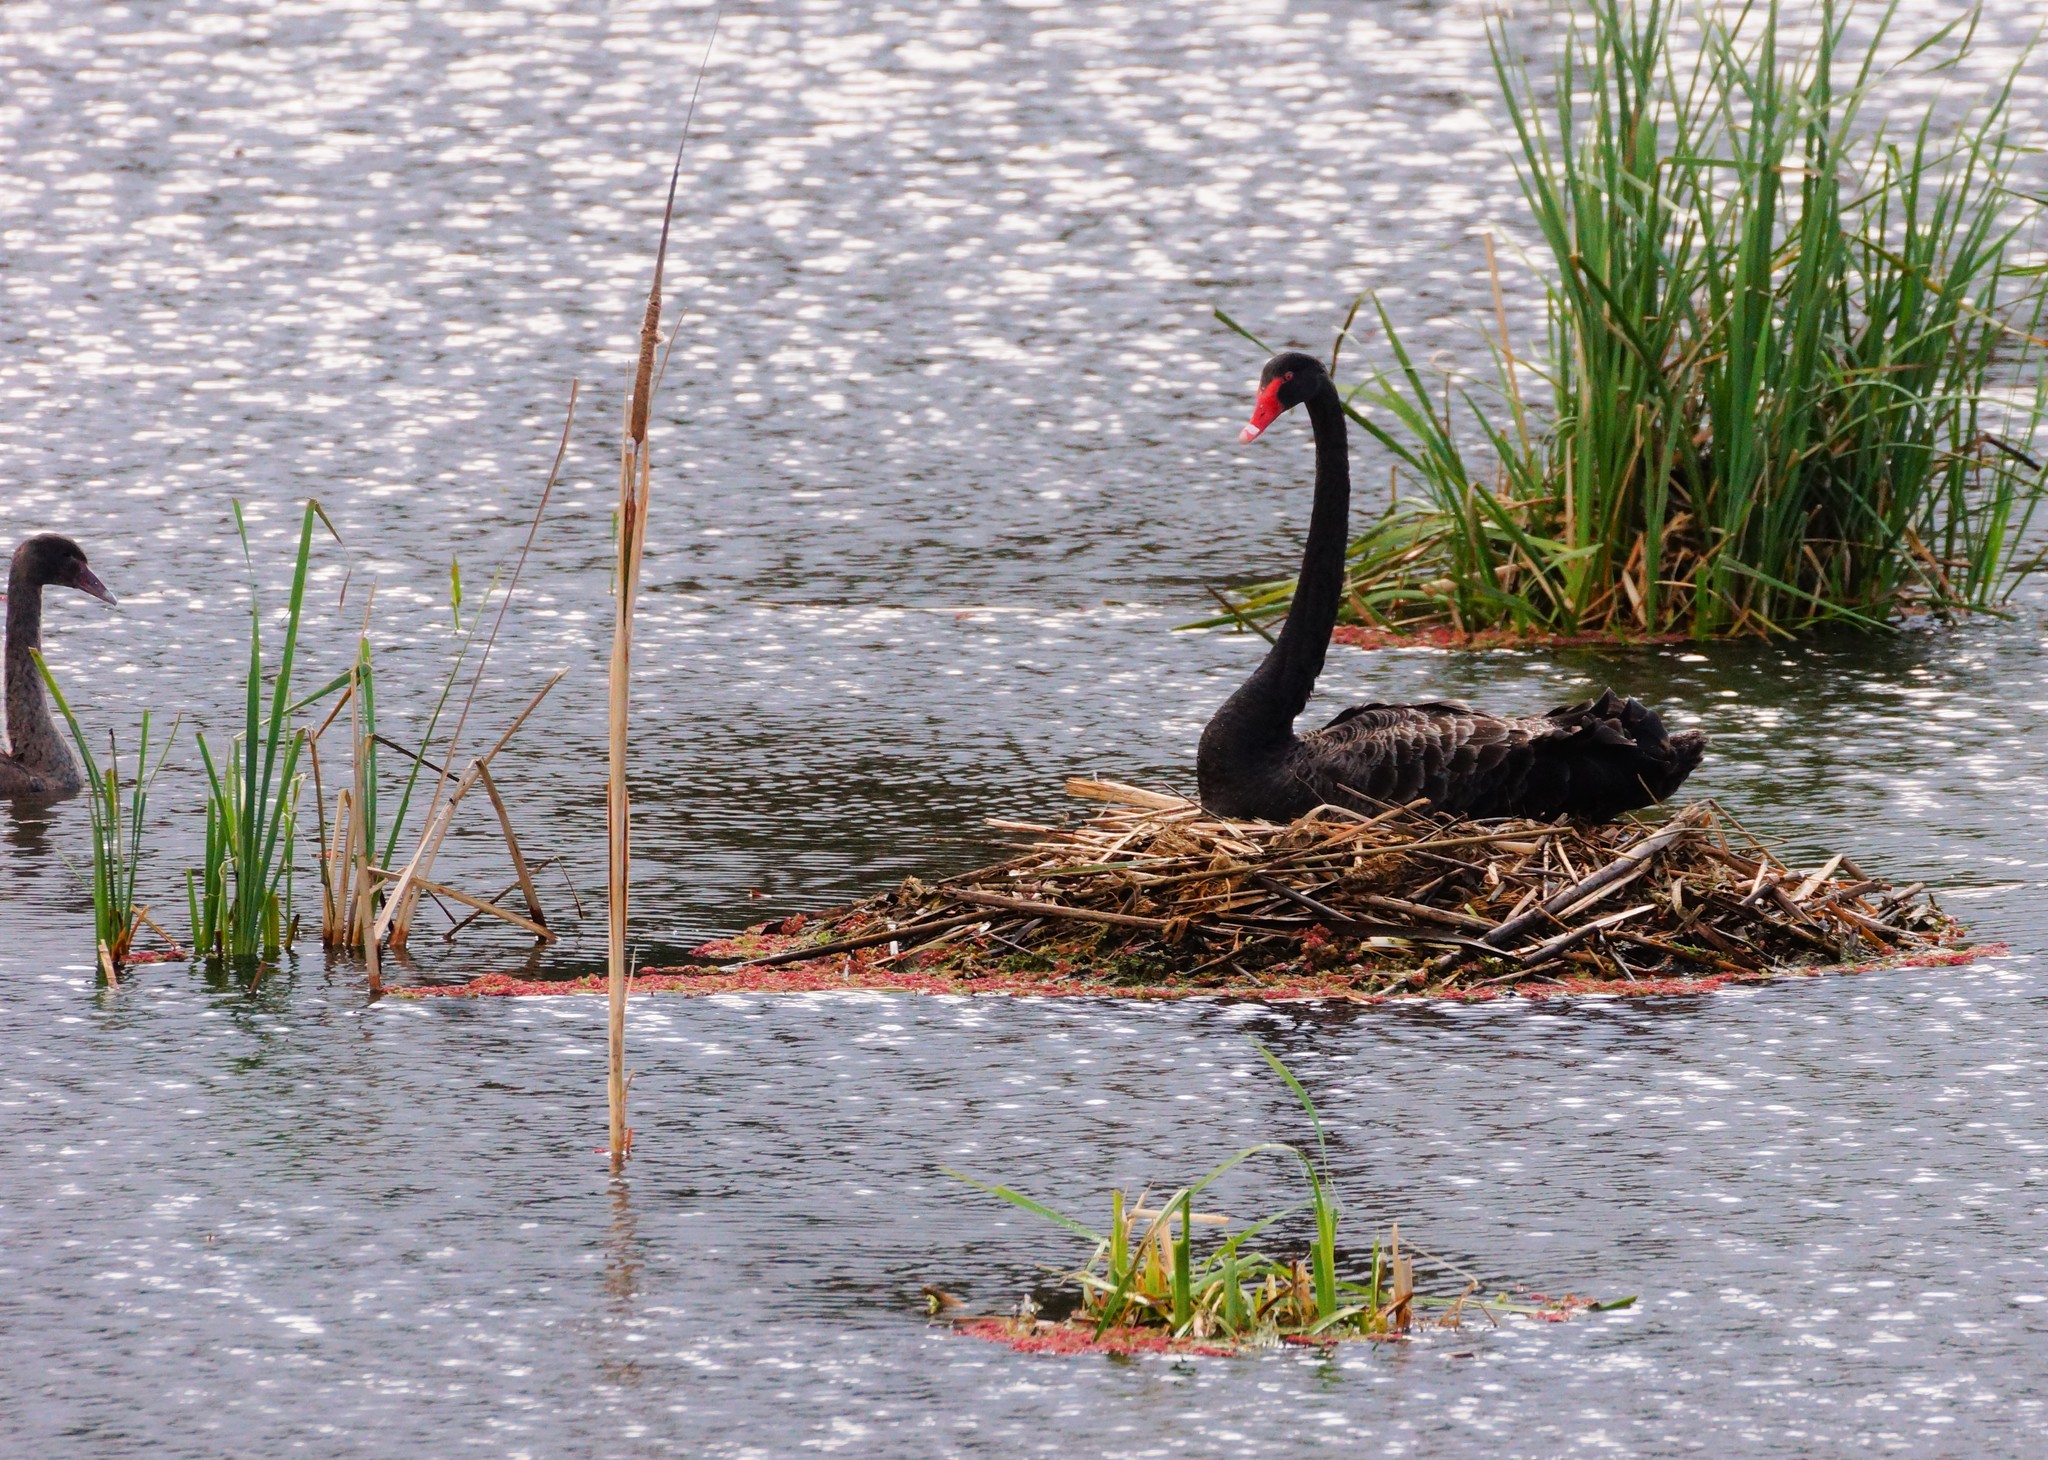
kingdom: Animalia
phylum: Chordata
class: Aves
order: Anseriformes
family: Anatidae
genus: Cygnus
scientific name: Cygnus atratus
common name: Black swan
